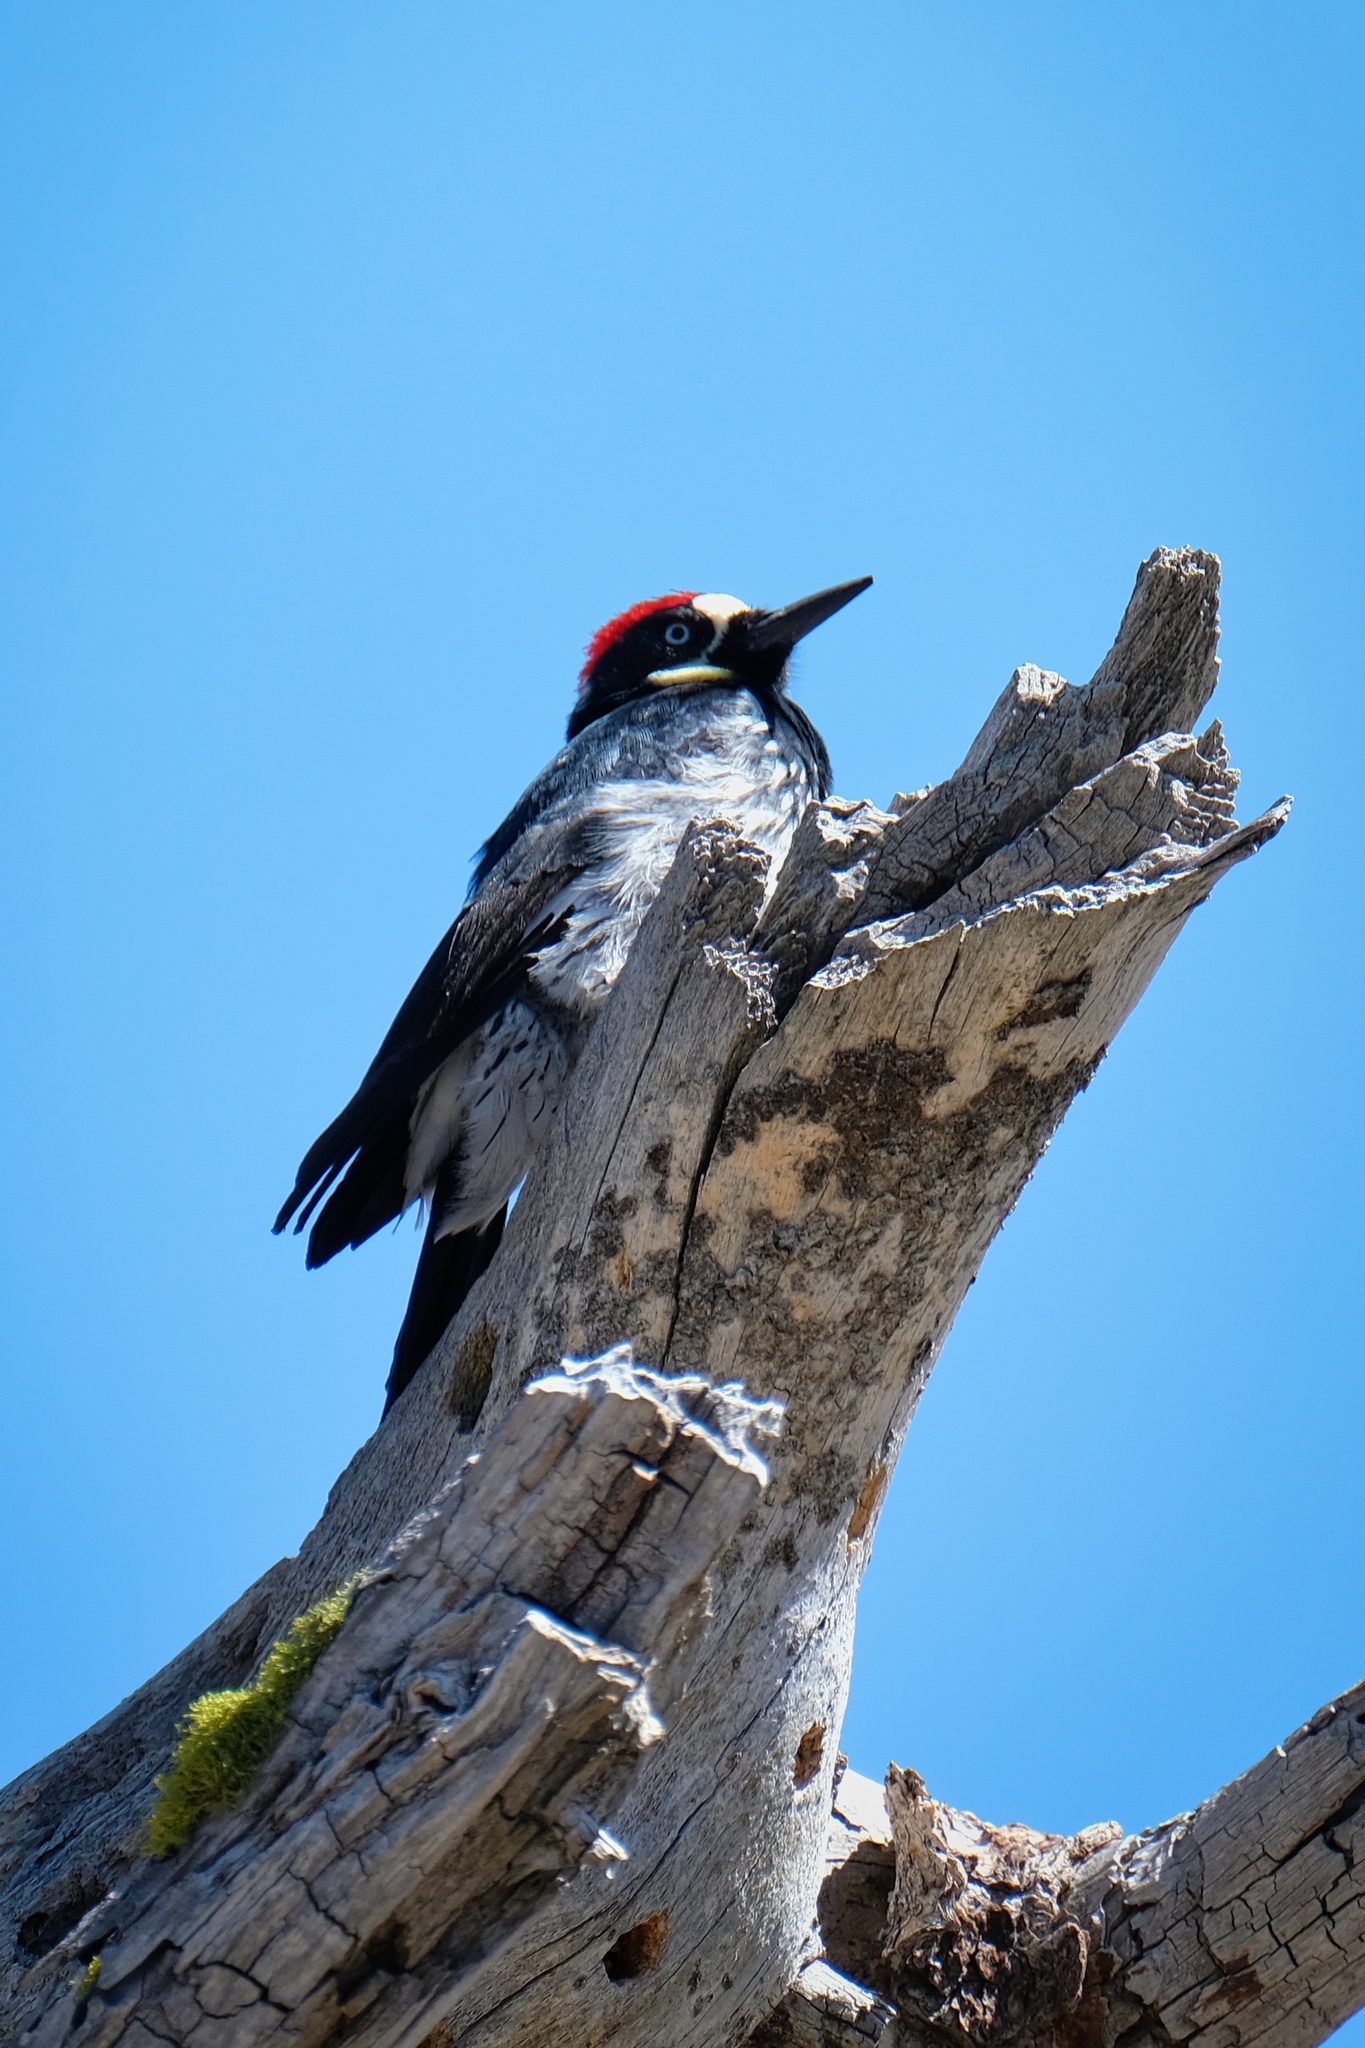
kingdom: Animalia
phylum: Chordata
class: Aves
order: Piciformes
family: Picidae
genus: Melanerpes
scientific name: Melanerpes formicivorus
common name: Acorn woodpecker
